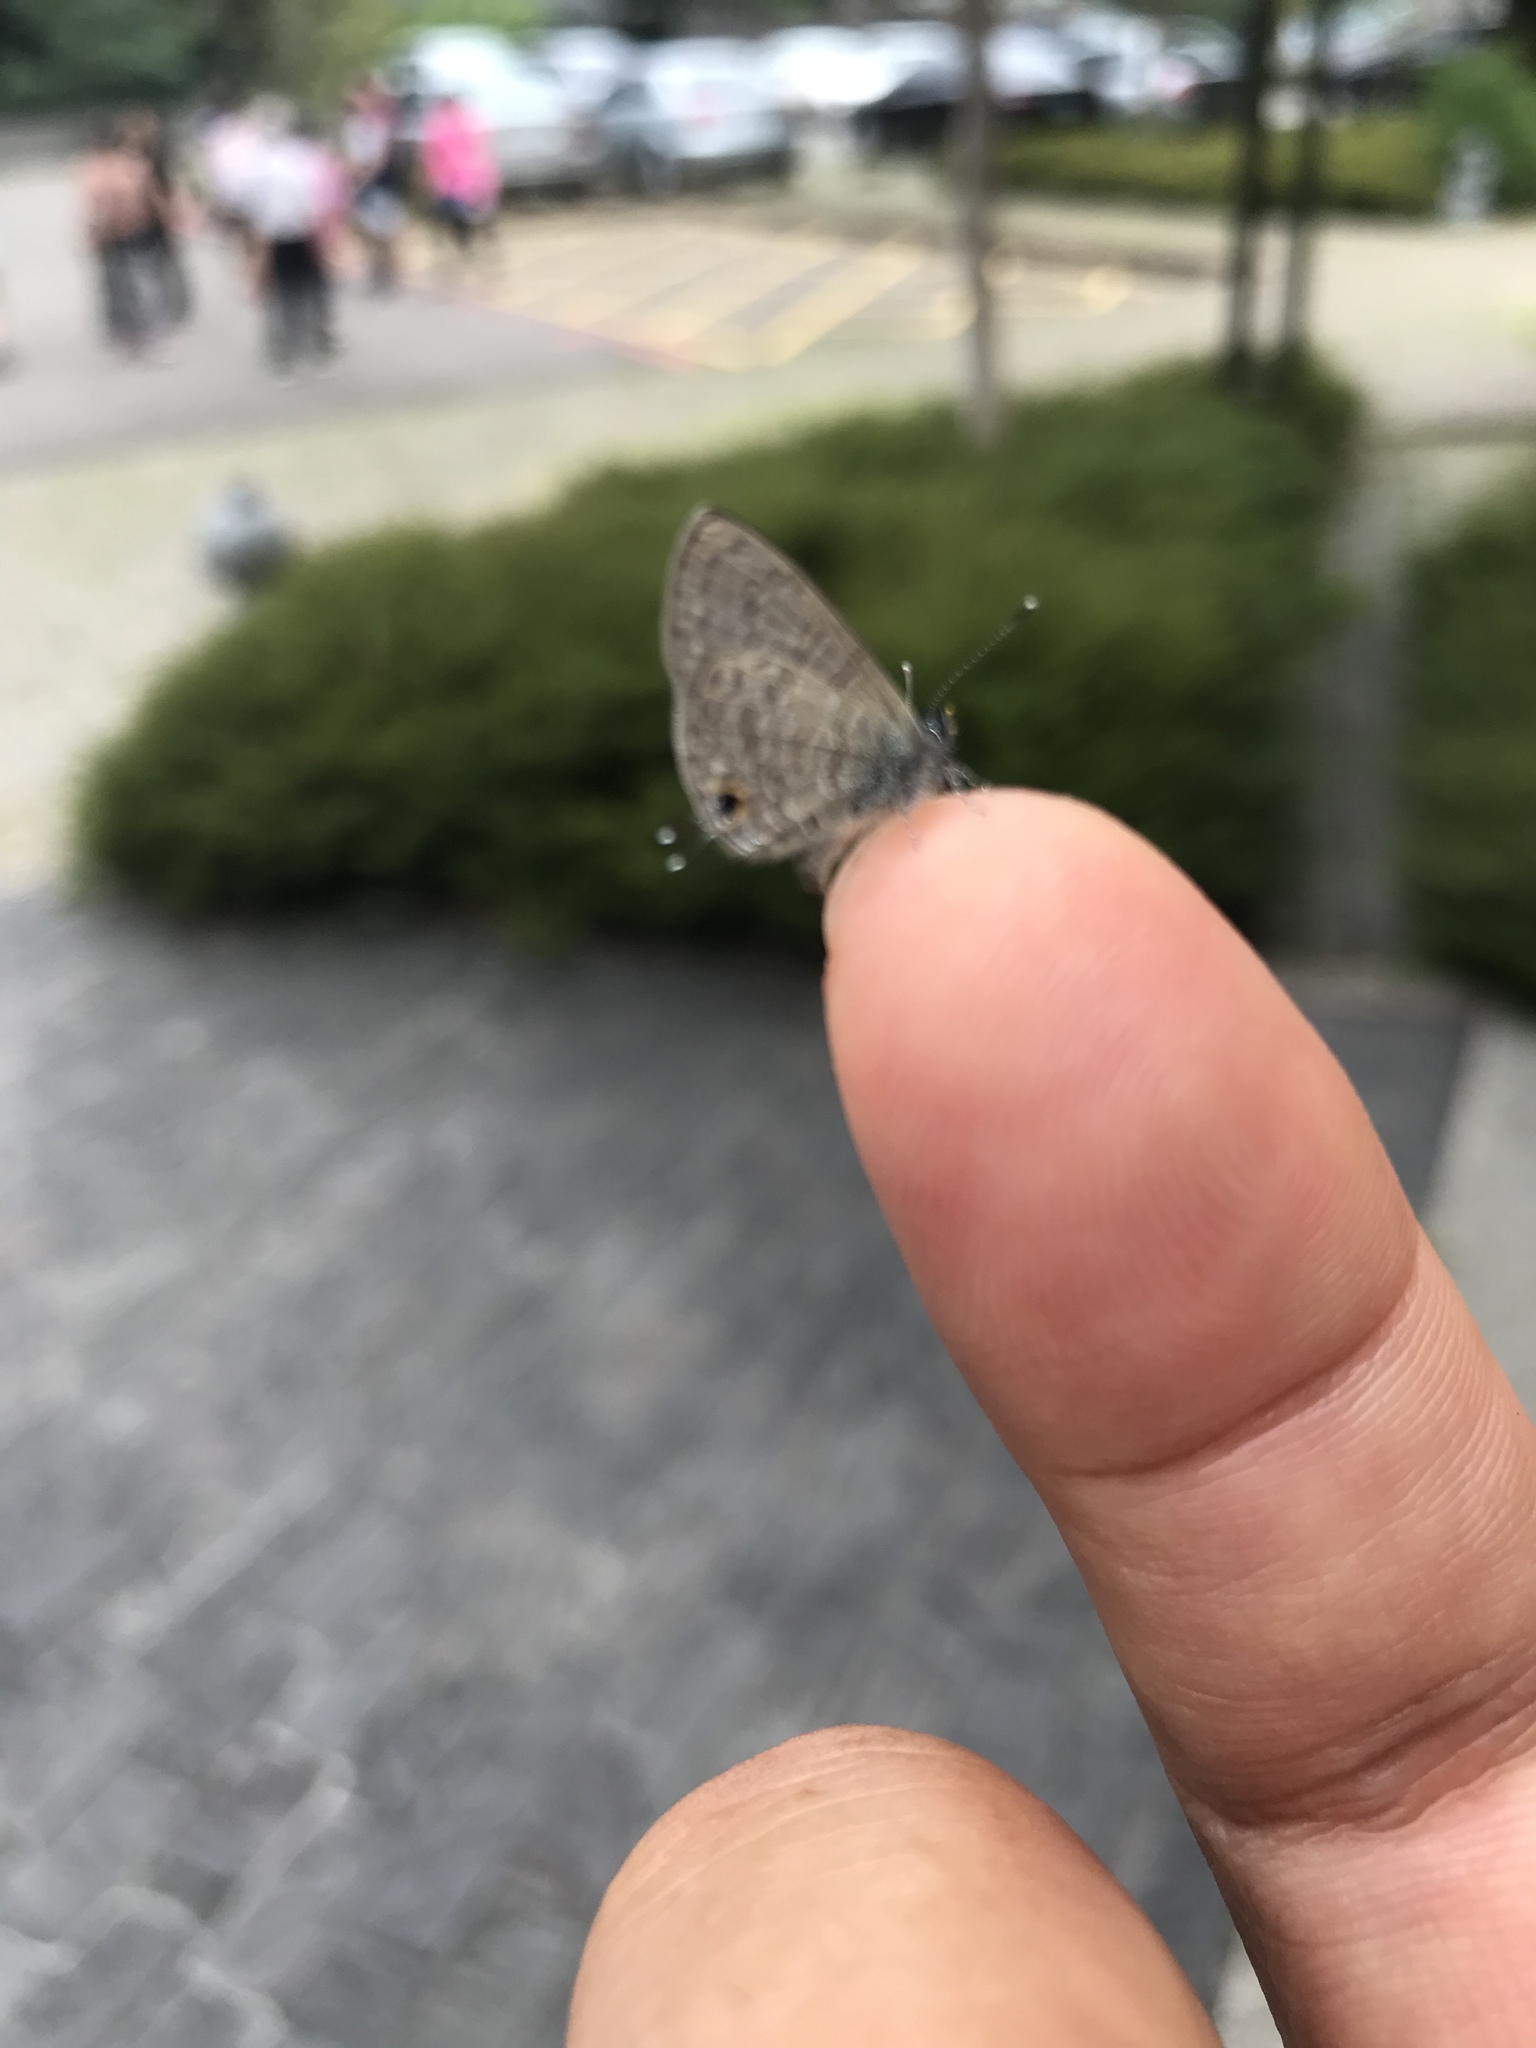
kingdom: Animalia
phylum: Arthropoda
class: Insecta
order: Lepidoptera
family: Lycaenidae
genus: Prosotas
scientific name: Prosotas nora
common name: Common line blue
